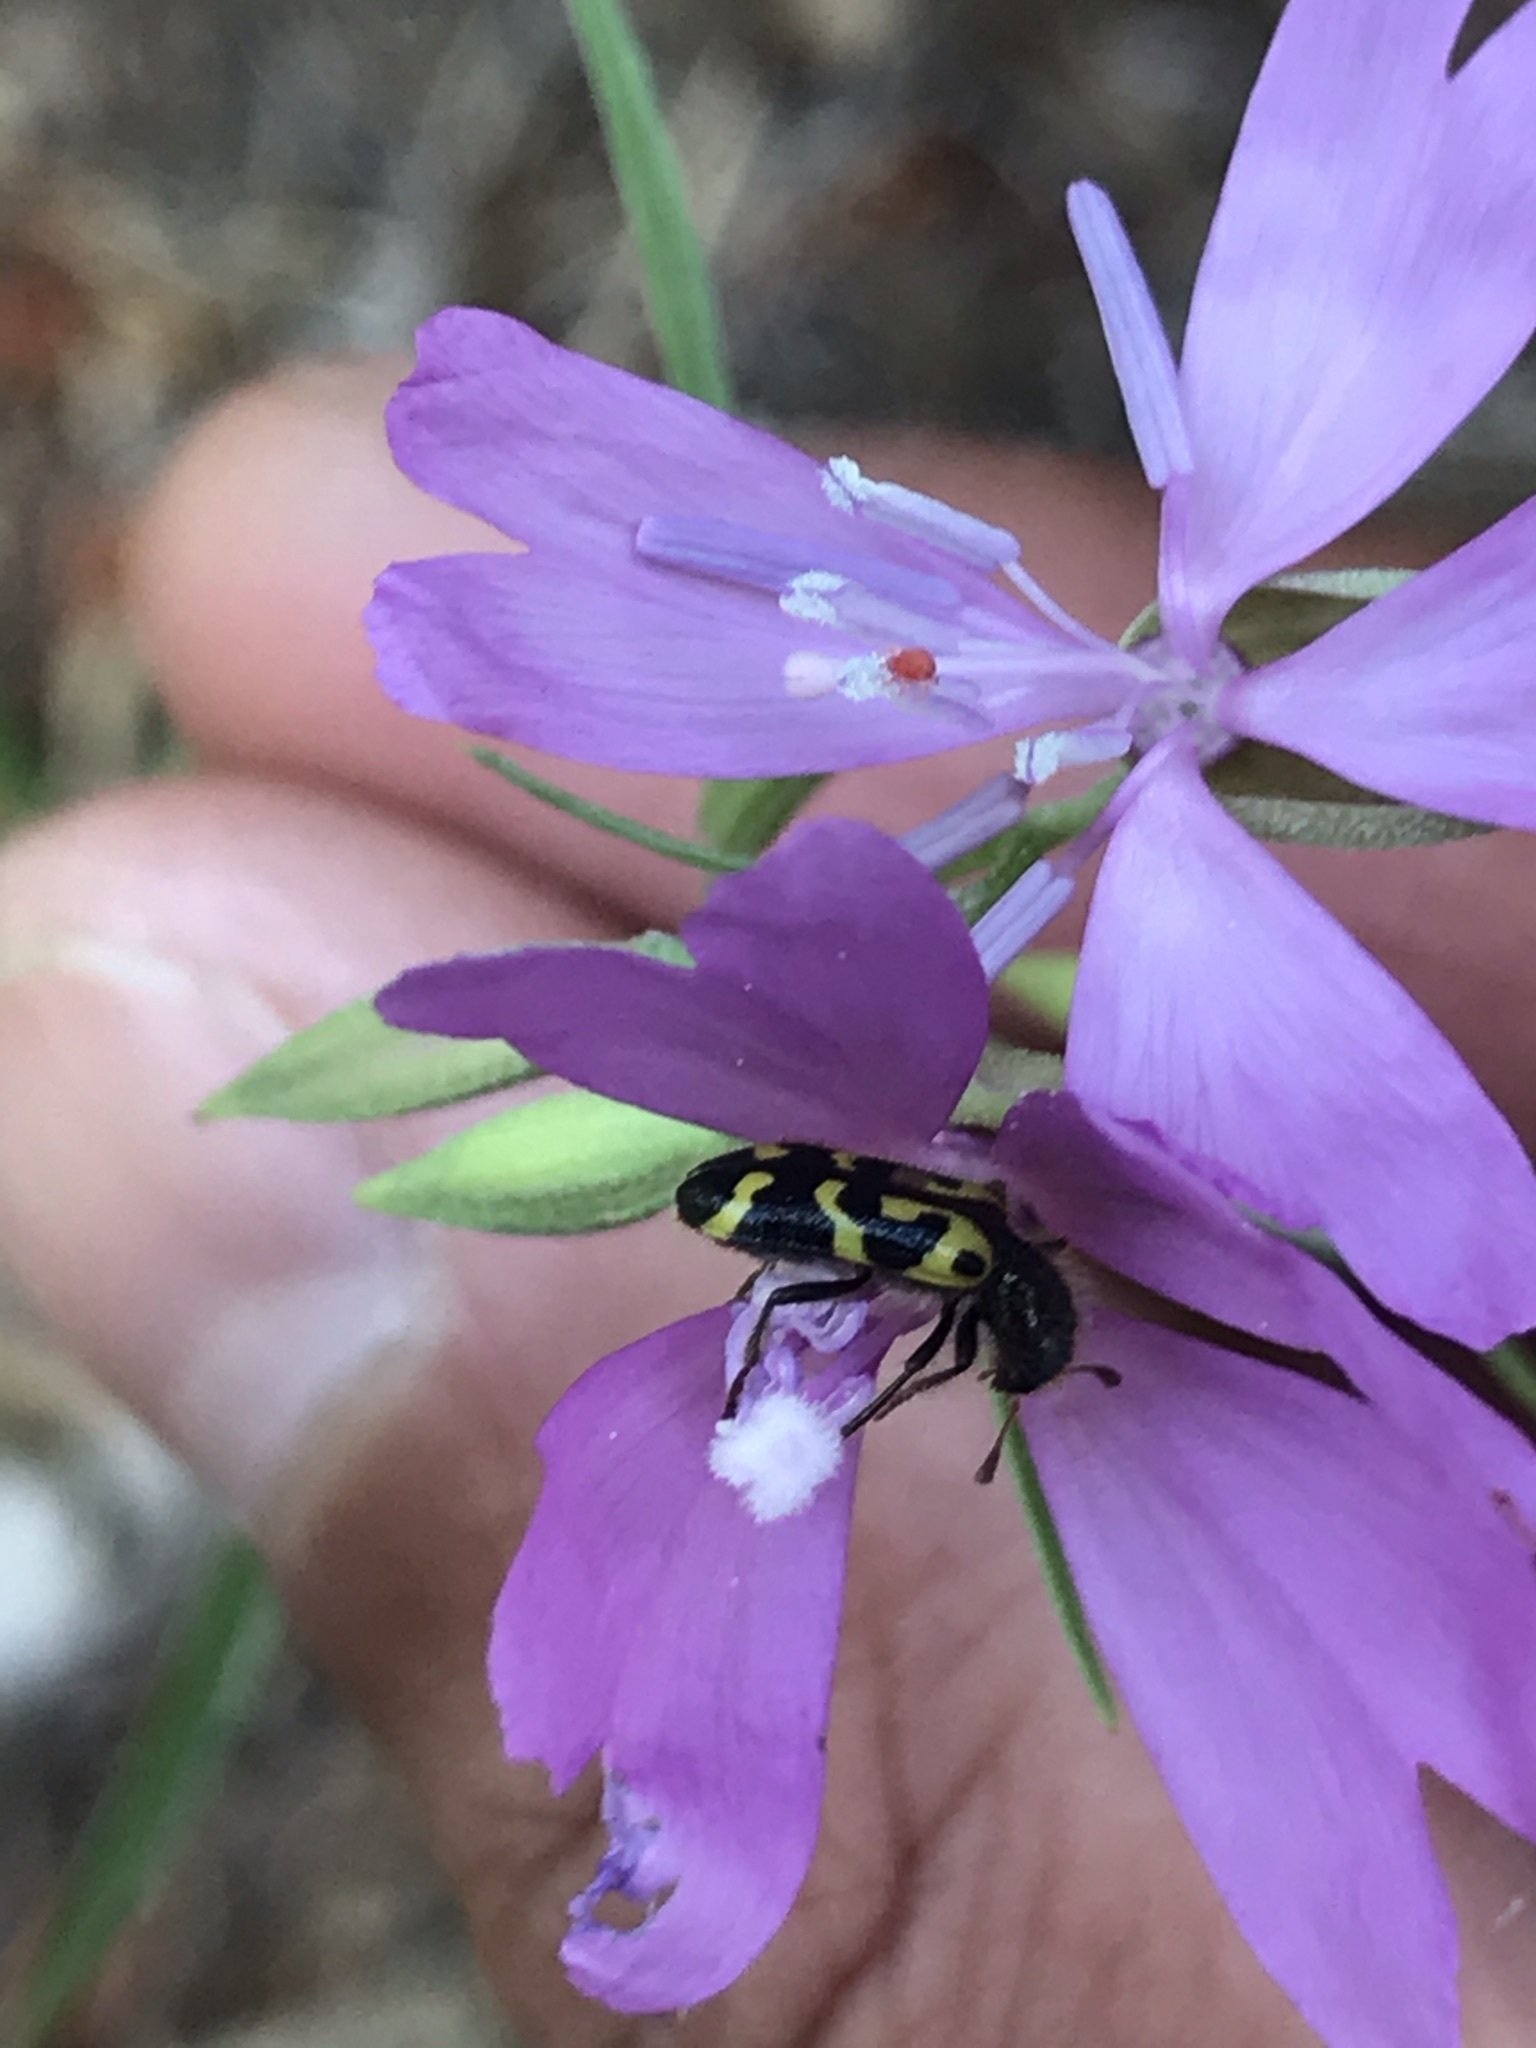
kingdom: Animalia
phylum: Arthropoda
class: Insecta
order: Coleoptera
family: Cleridae
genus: Trichodes
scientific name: Trichodes ornatus
